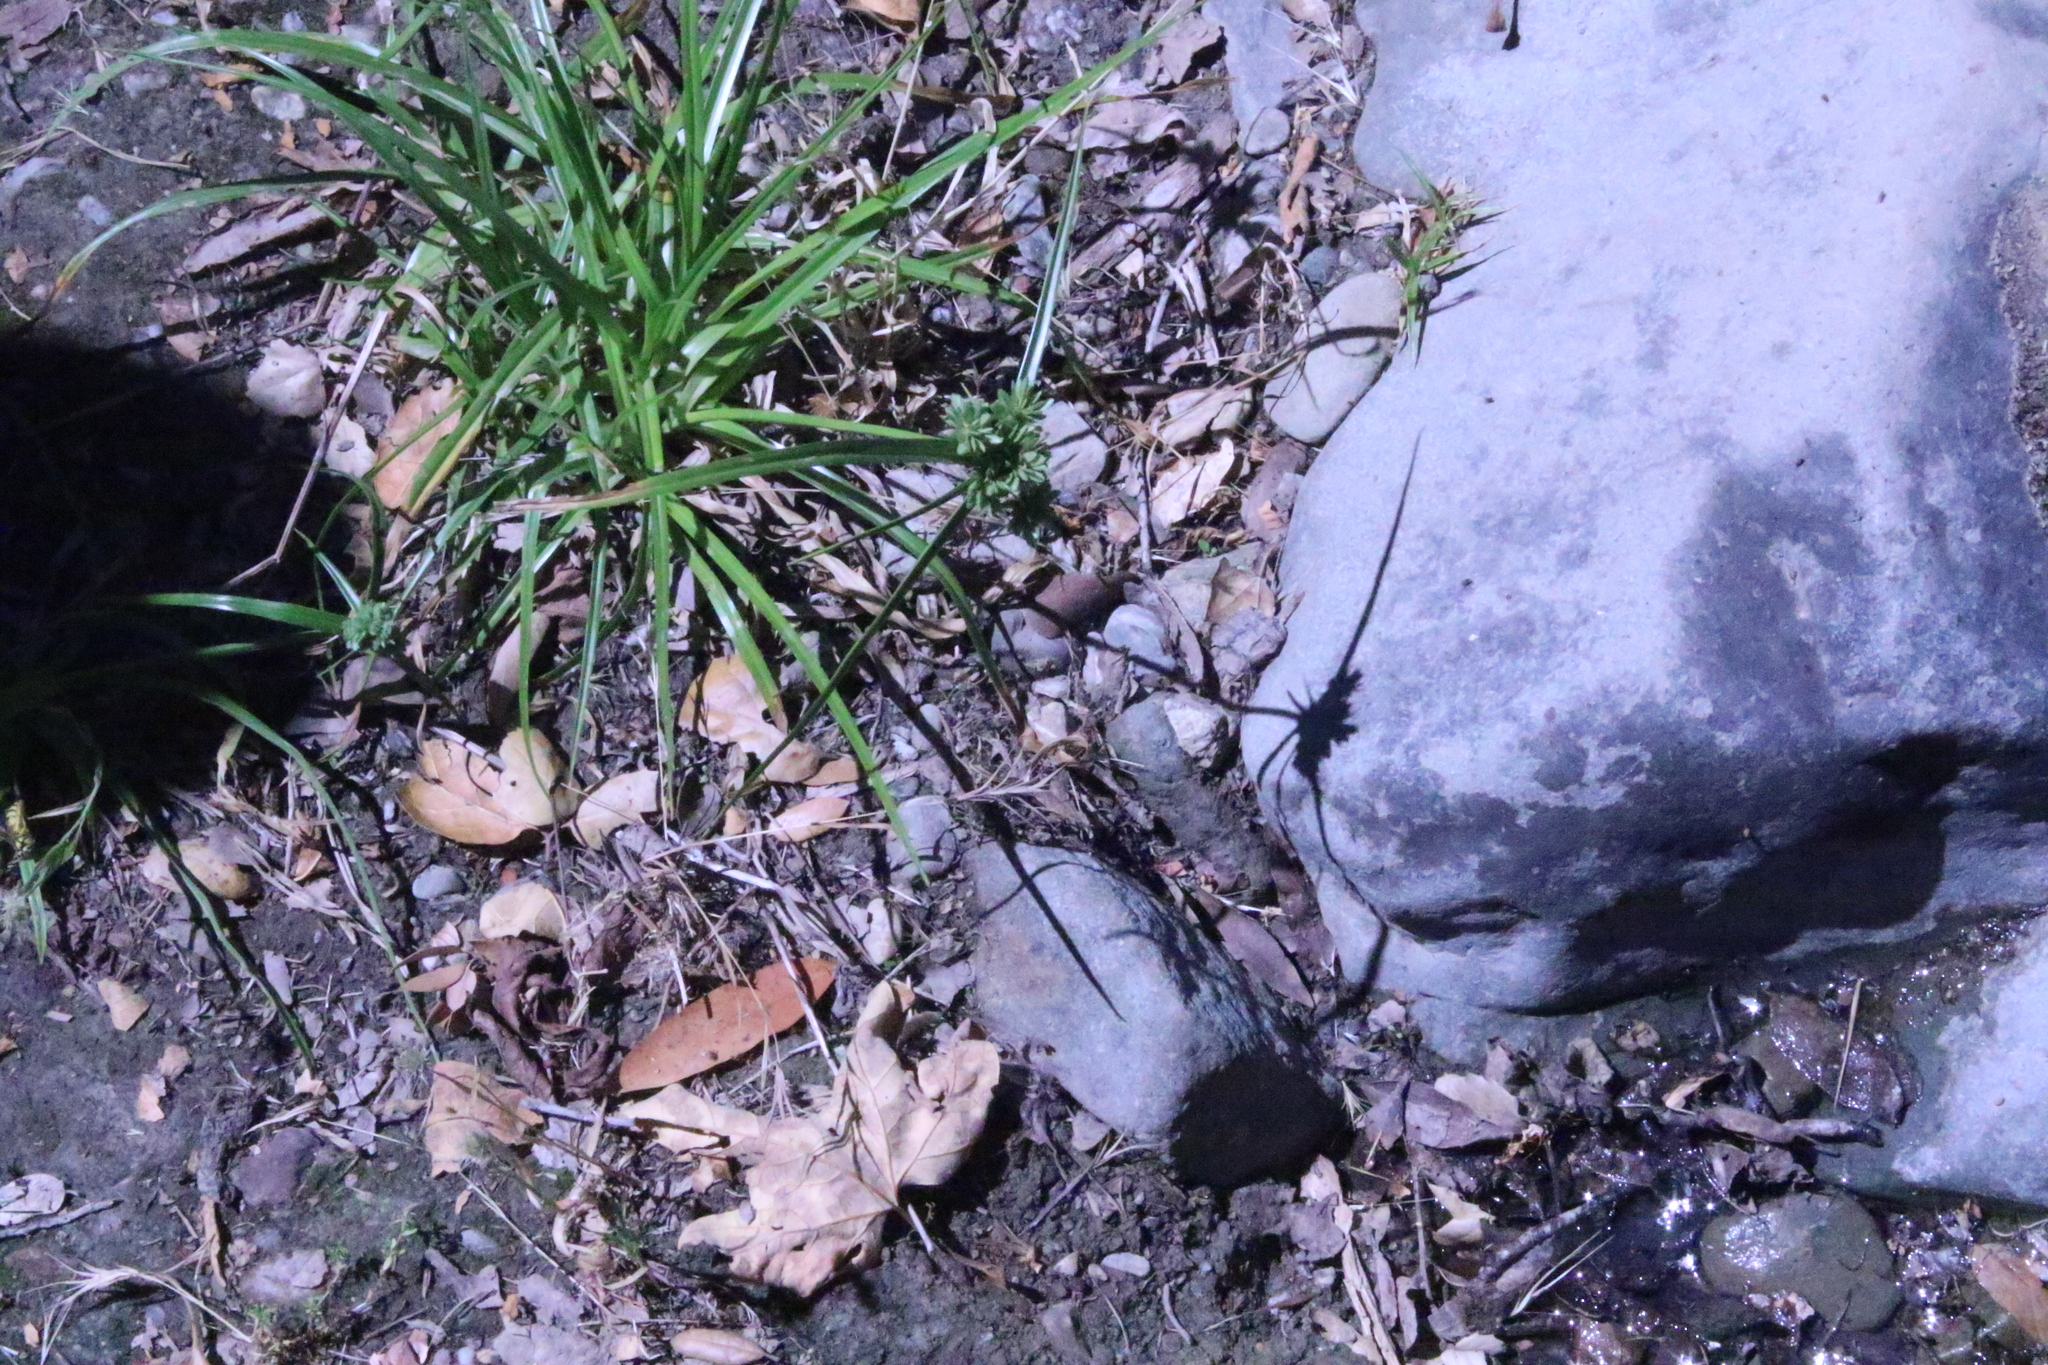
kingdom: Plantae
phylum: Tracheophyta
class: Liliopsida
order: Poales
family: Cyperaceae
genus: Cyperus
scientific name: Cyperus eragrostis
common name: Tall flatsedge
